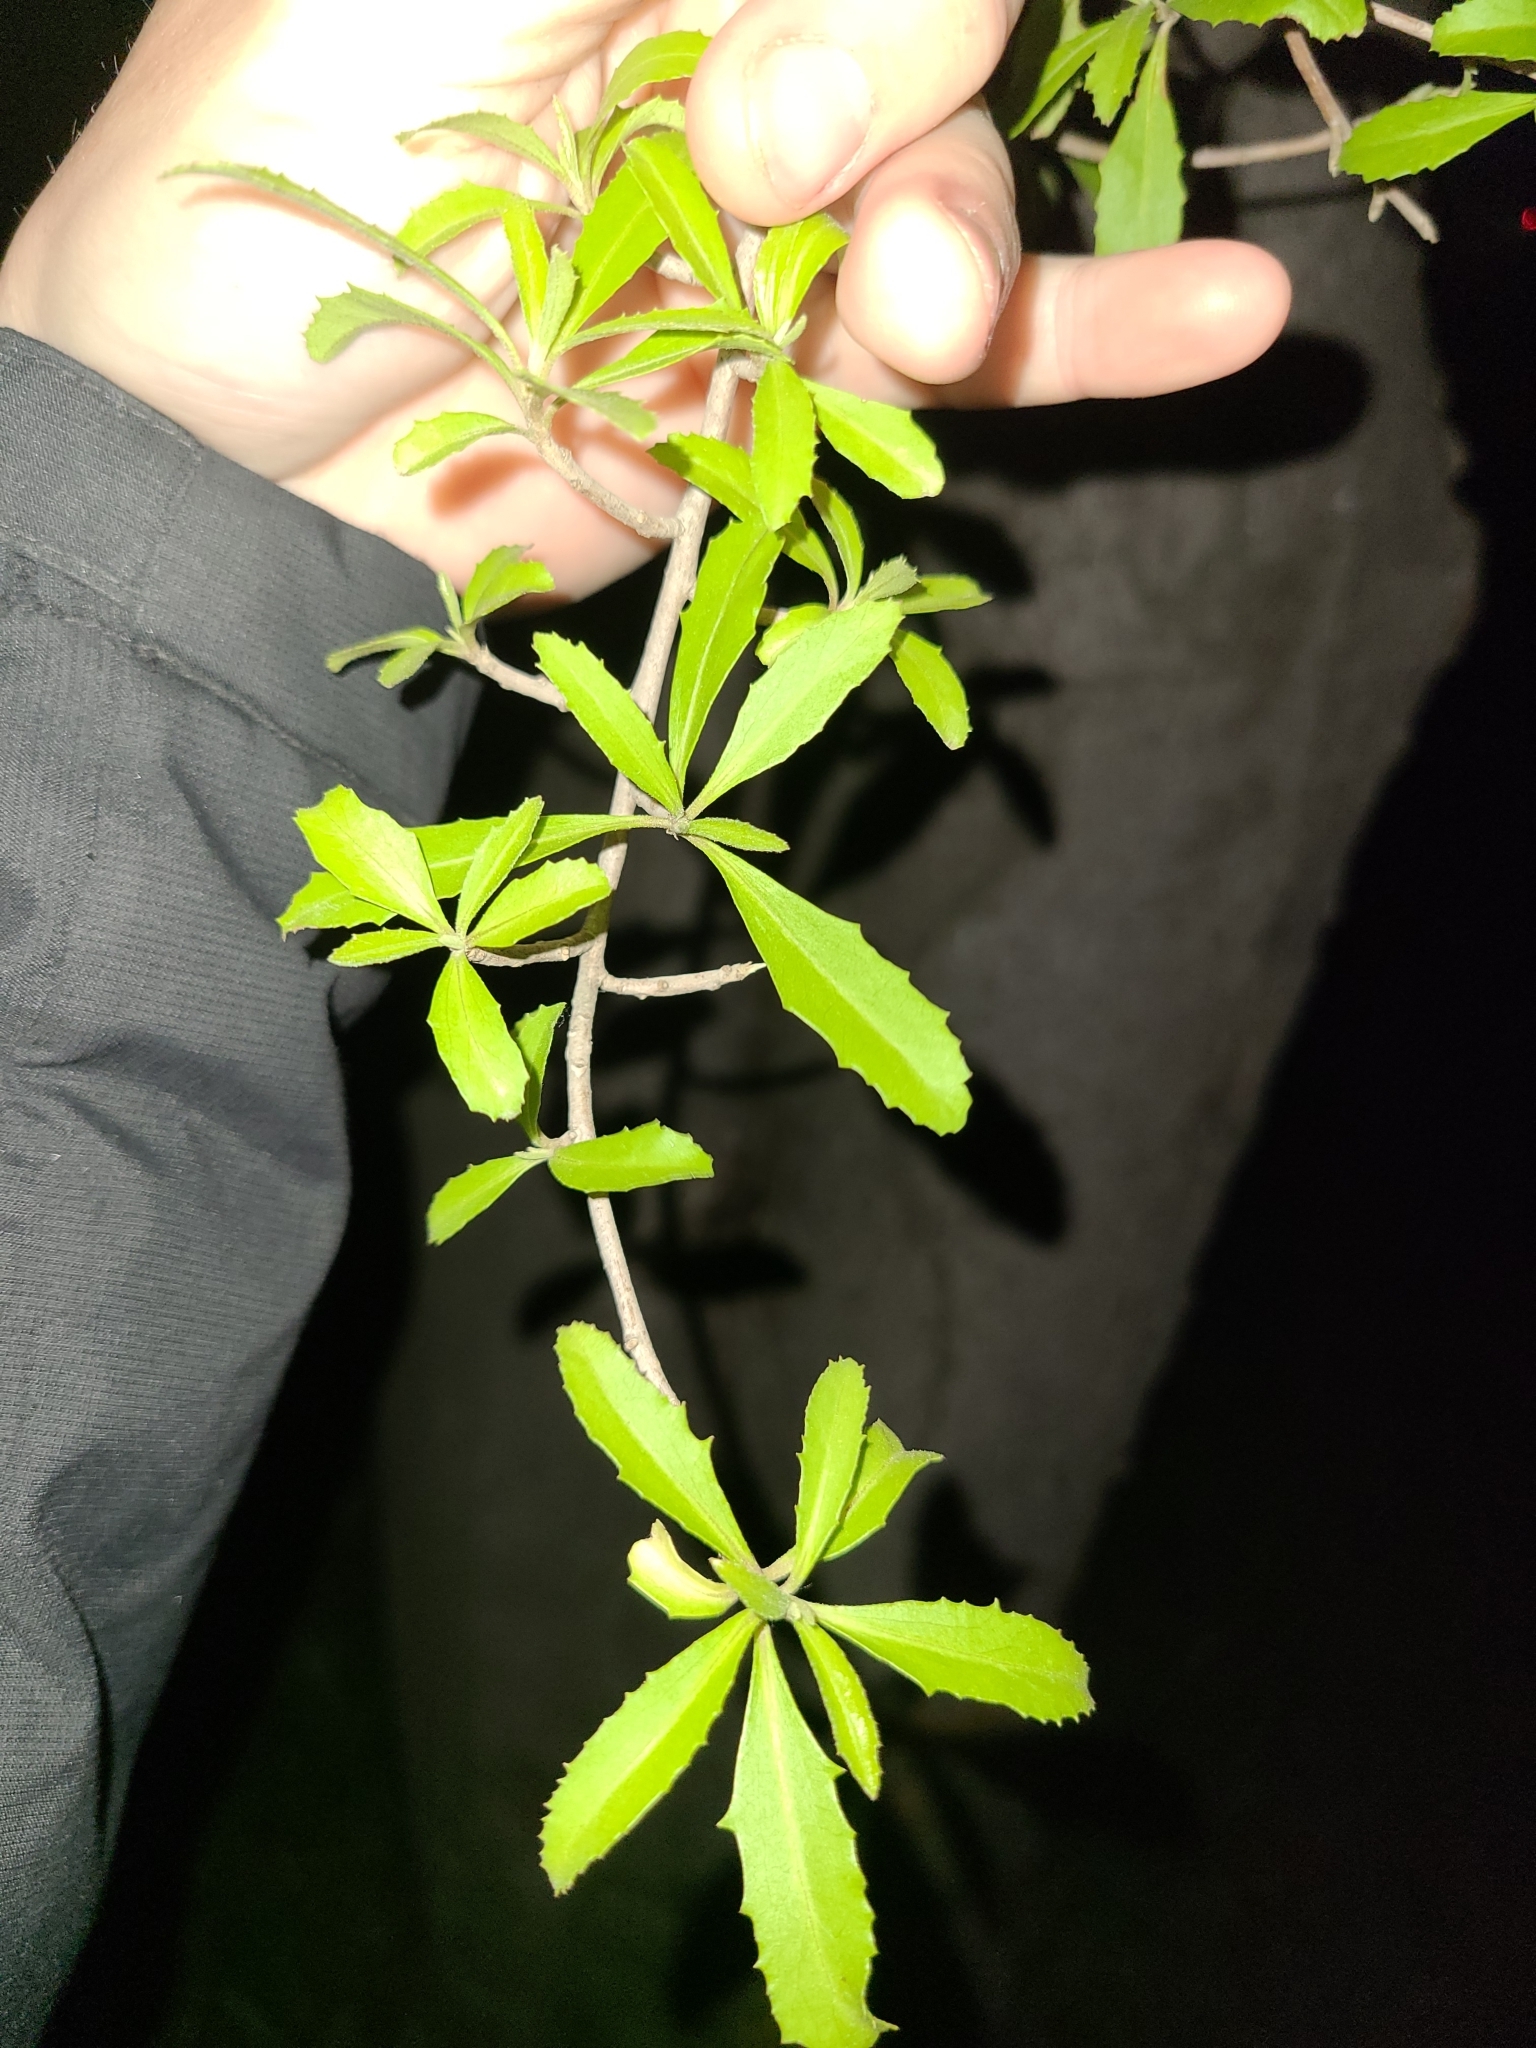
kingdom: Plantae
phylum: Tracheophyta
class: Magnoliopsida
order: Malvales
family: Malvaceae
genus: Hoheria
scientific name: Hoheria angustifolia
